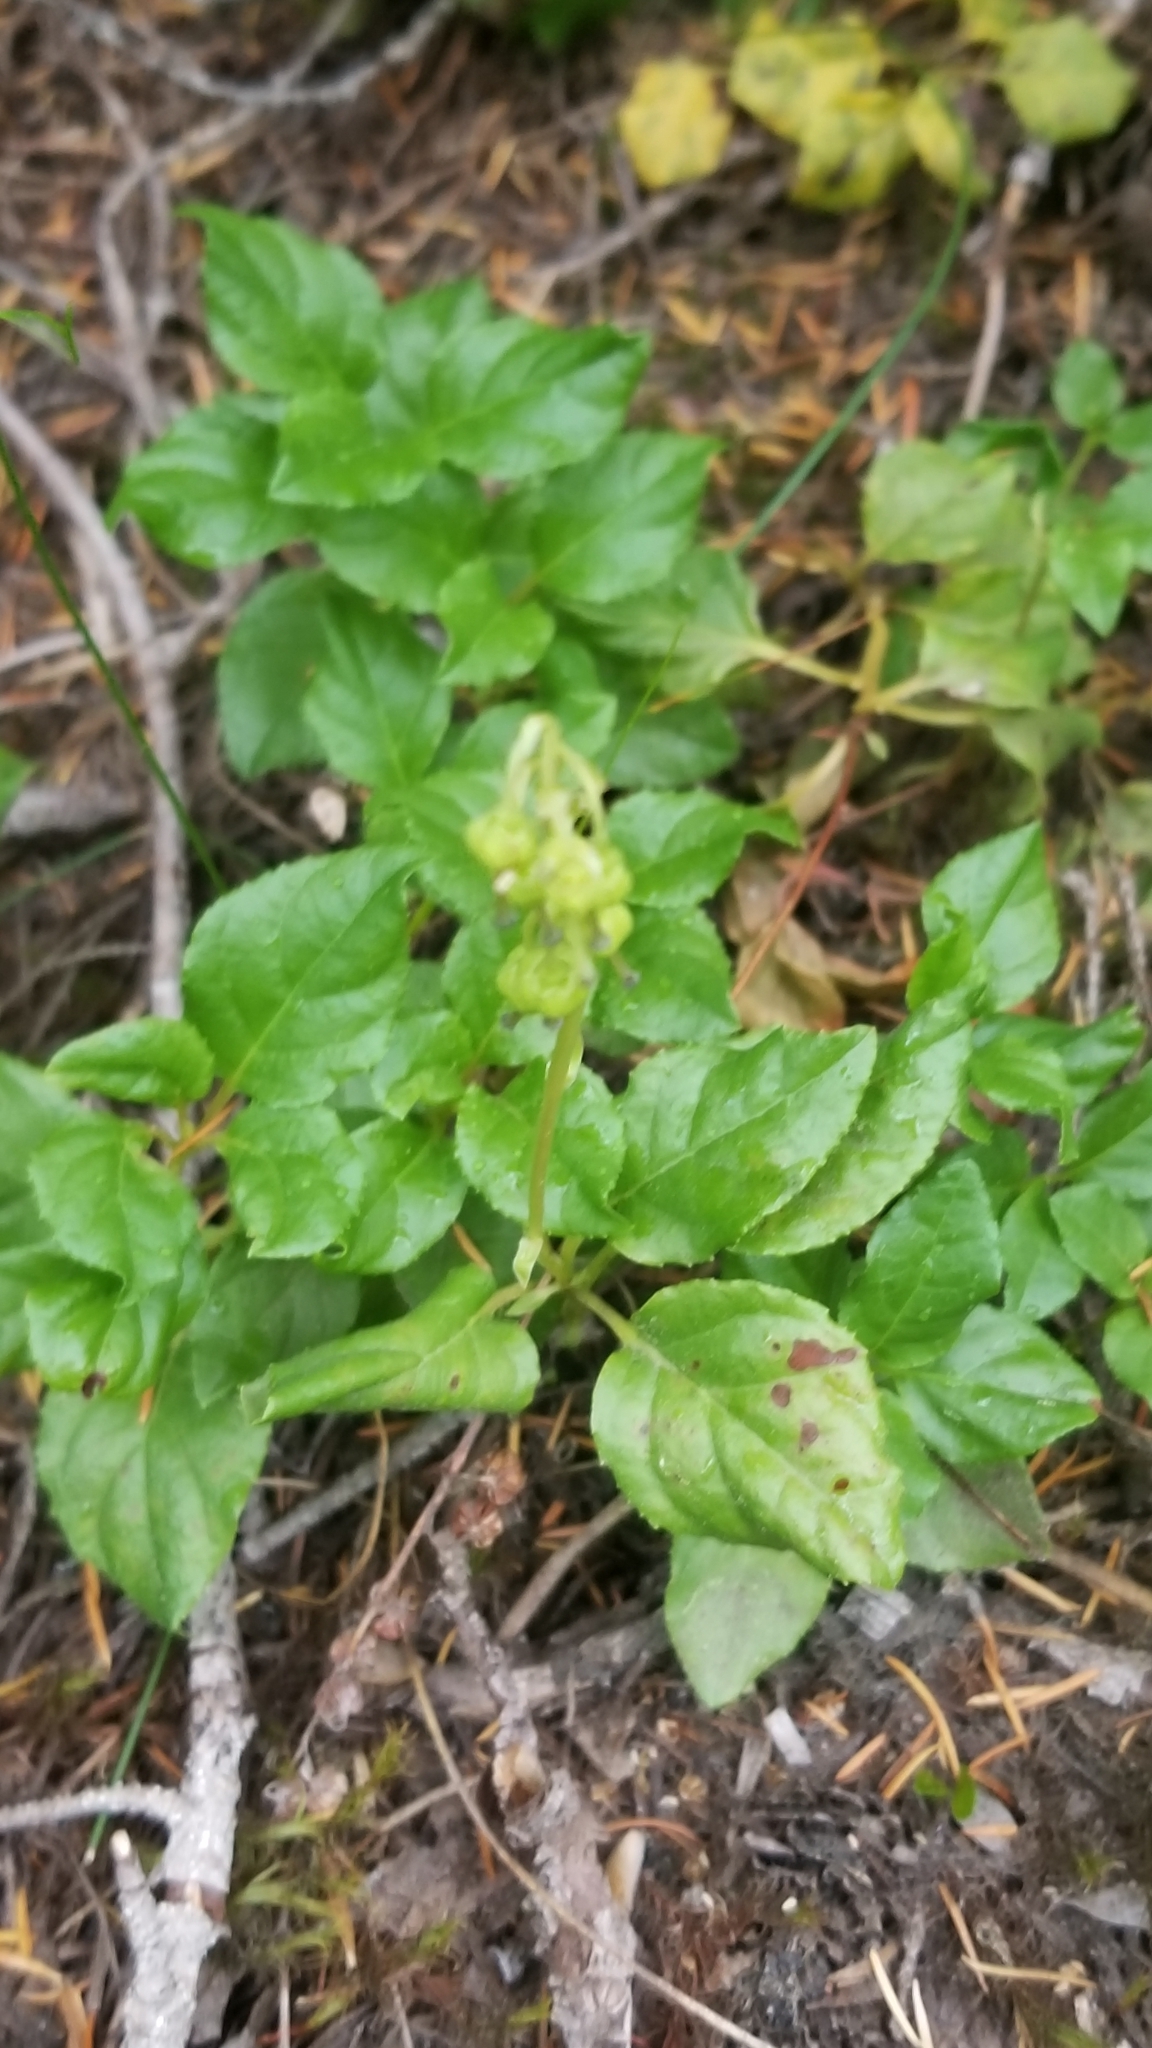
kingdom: Plantae
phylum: Tracheophyta
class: Magnoliopsida
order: Ericales
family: Ericaceae
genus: Orthilia
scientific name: Orthilia secunda
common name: One-sided orthilia
